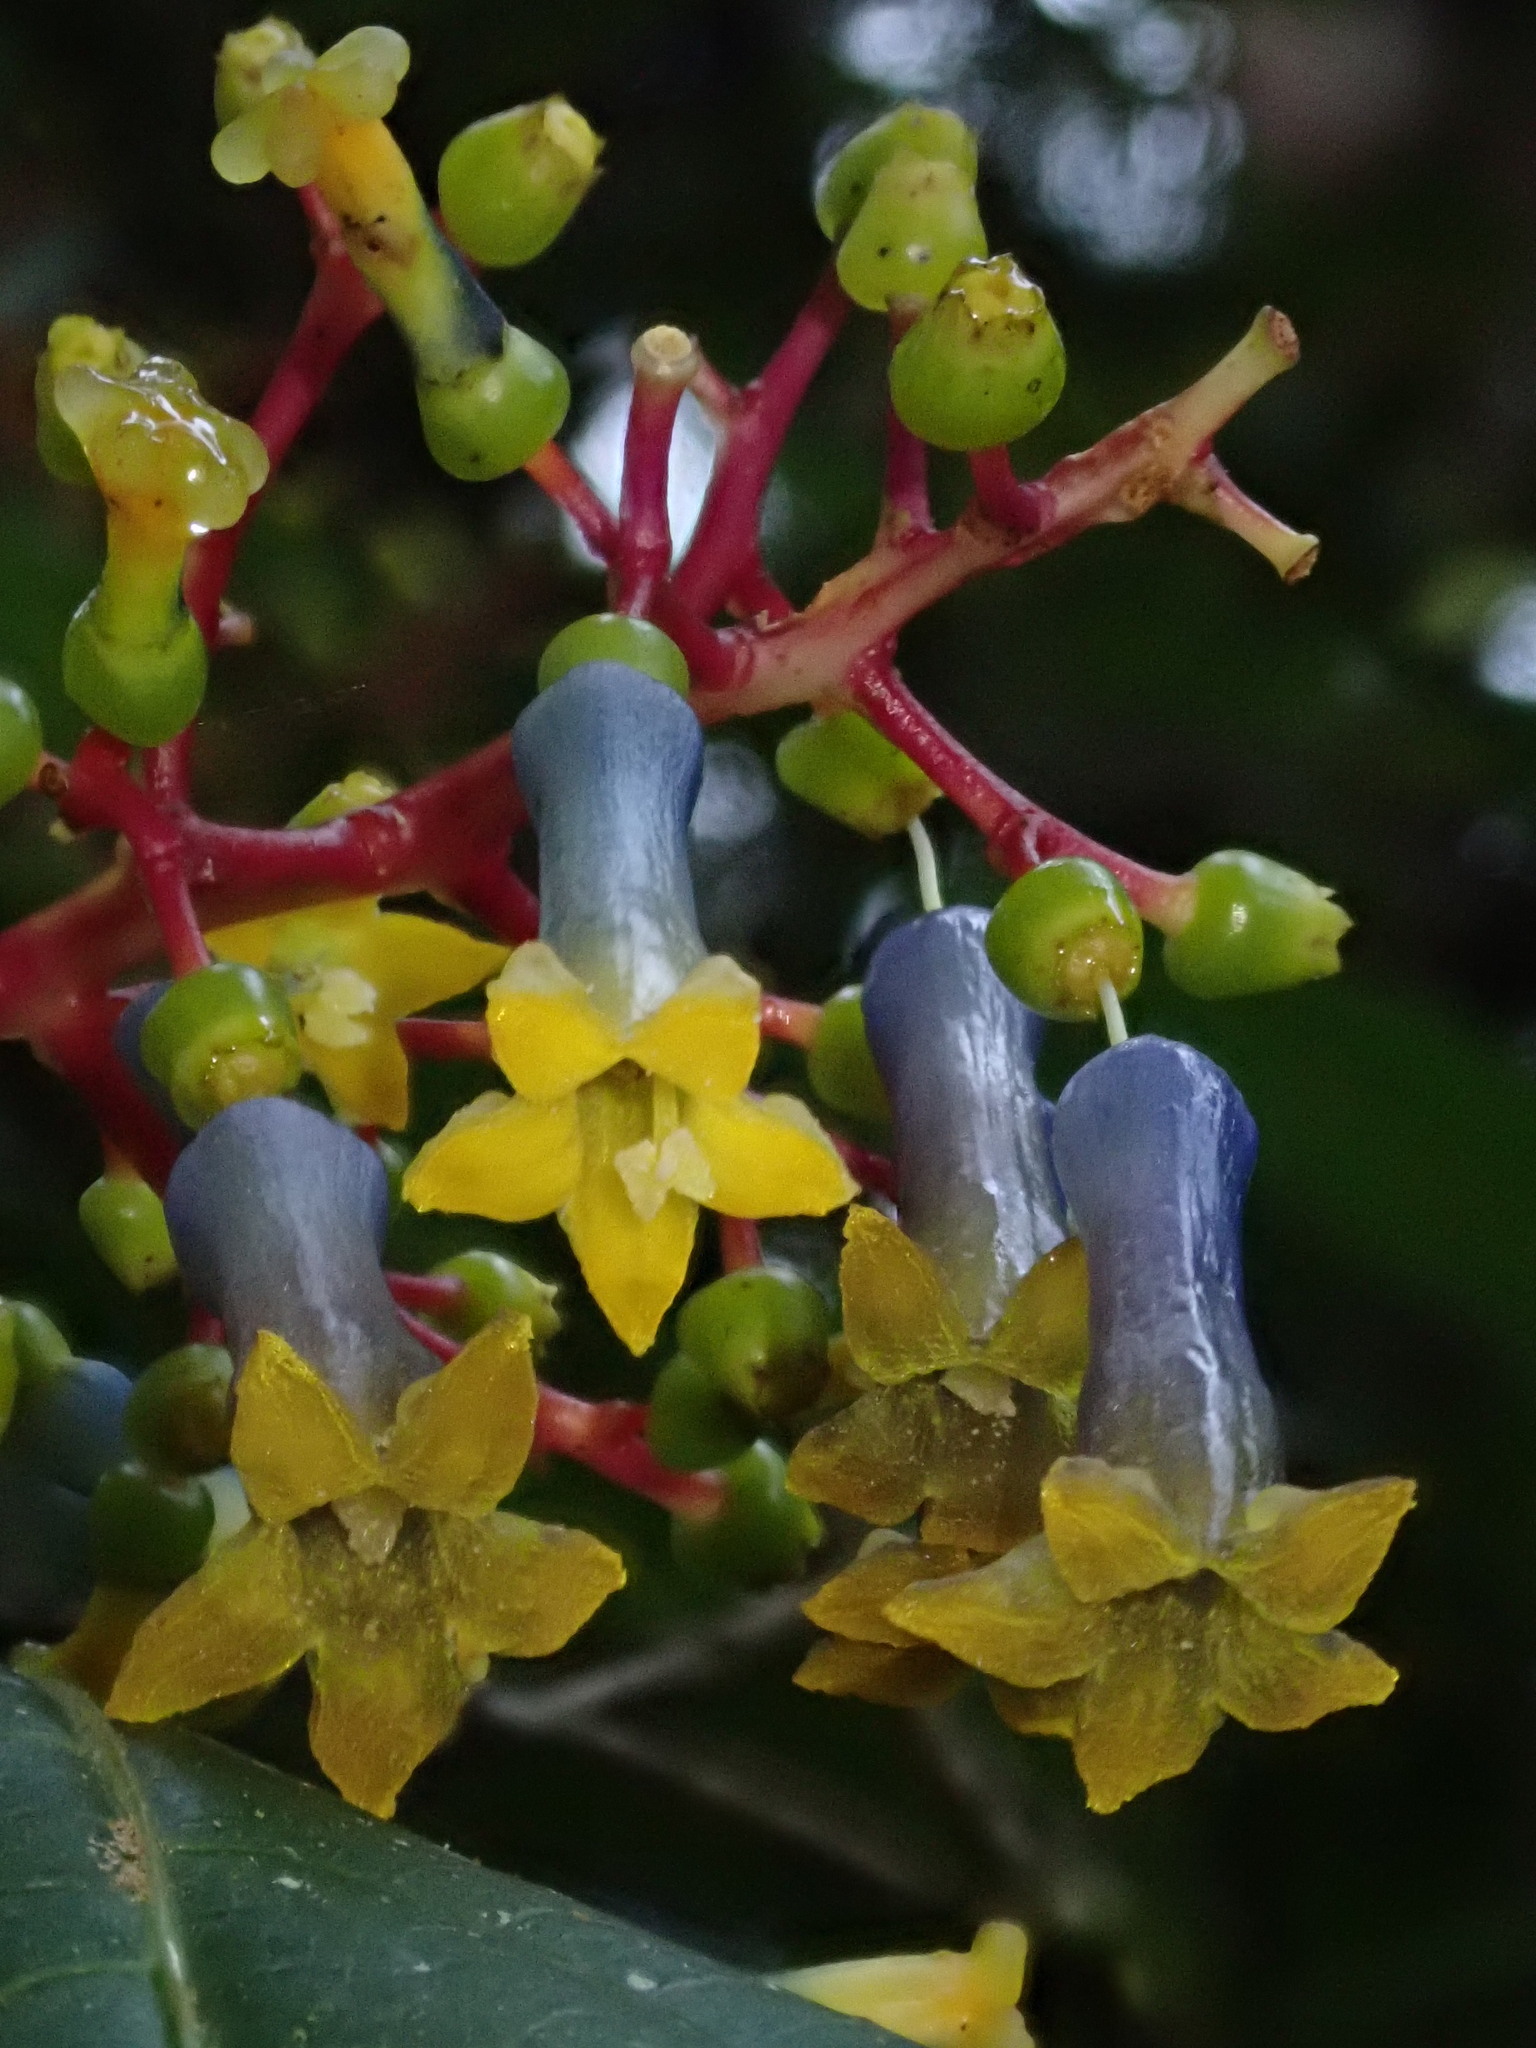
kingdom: Plantae
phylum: Tracheophyta
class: Magnoliopsida
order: Gentianales
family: Rubiaceae
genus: Palicourea
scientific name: Palicourea corniculata
